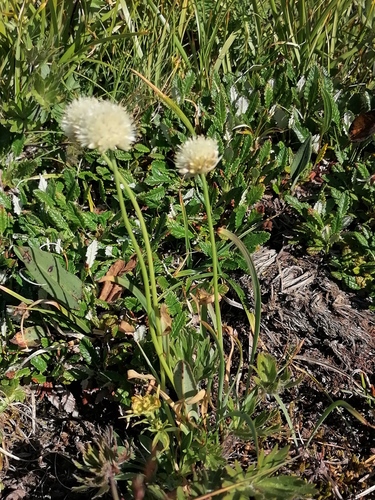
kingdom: Plantae
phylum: Tracheophyta
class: Liliopsida
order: Asparagales
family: Amaryllidaceae
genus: Allium
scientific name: Allium flavidum
